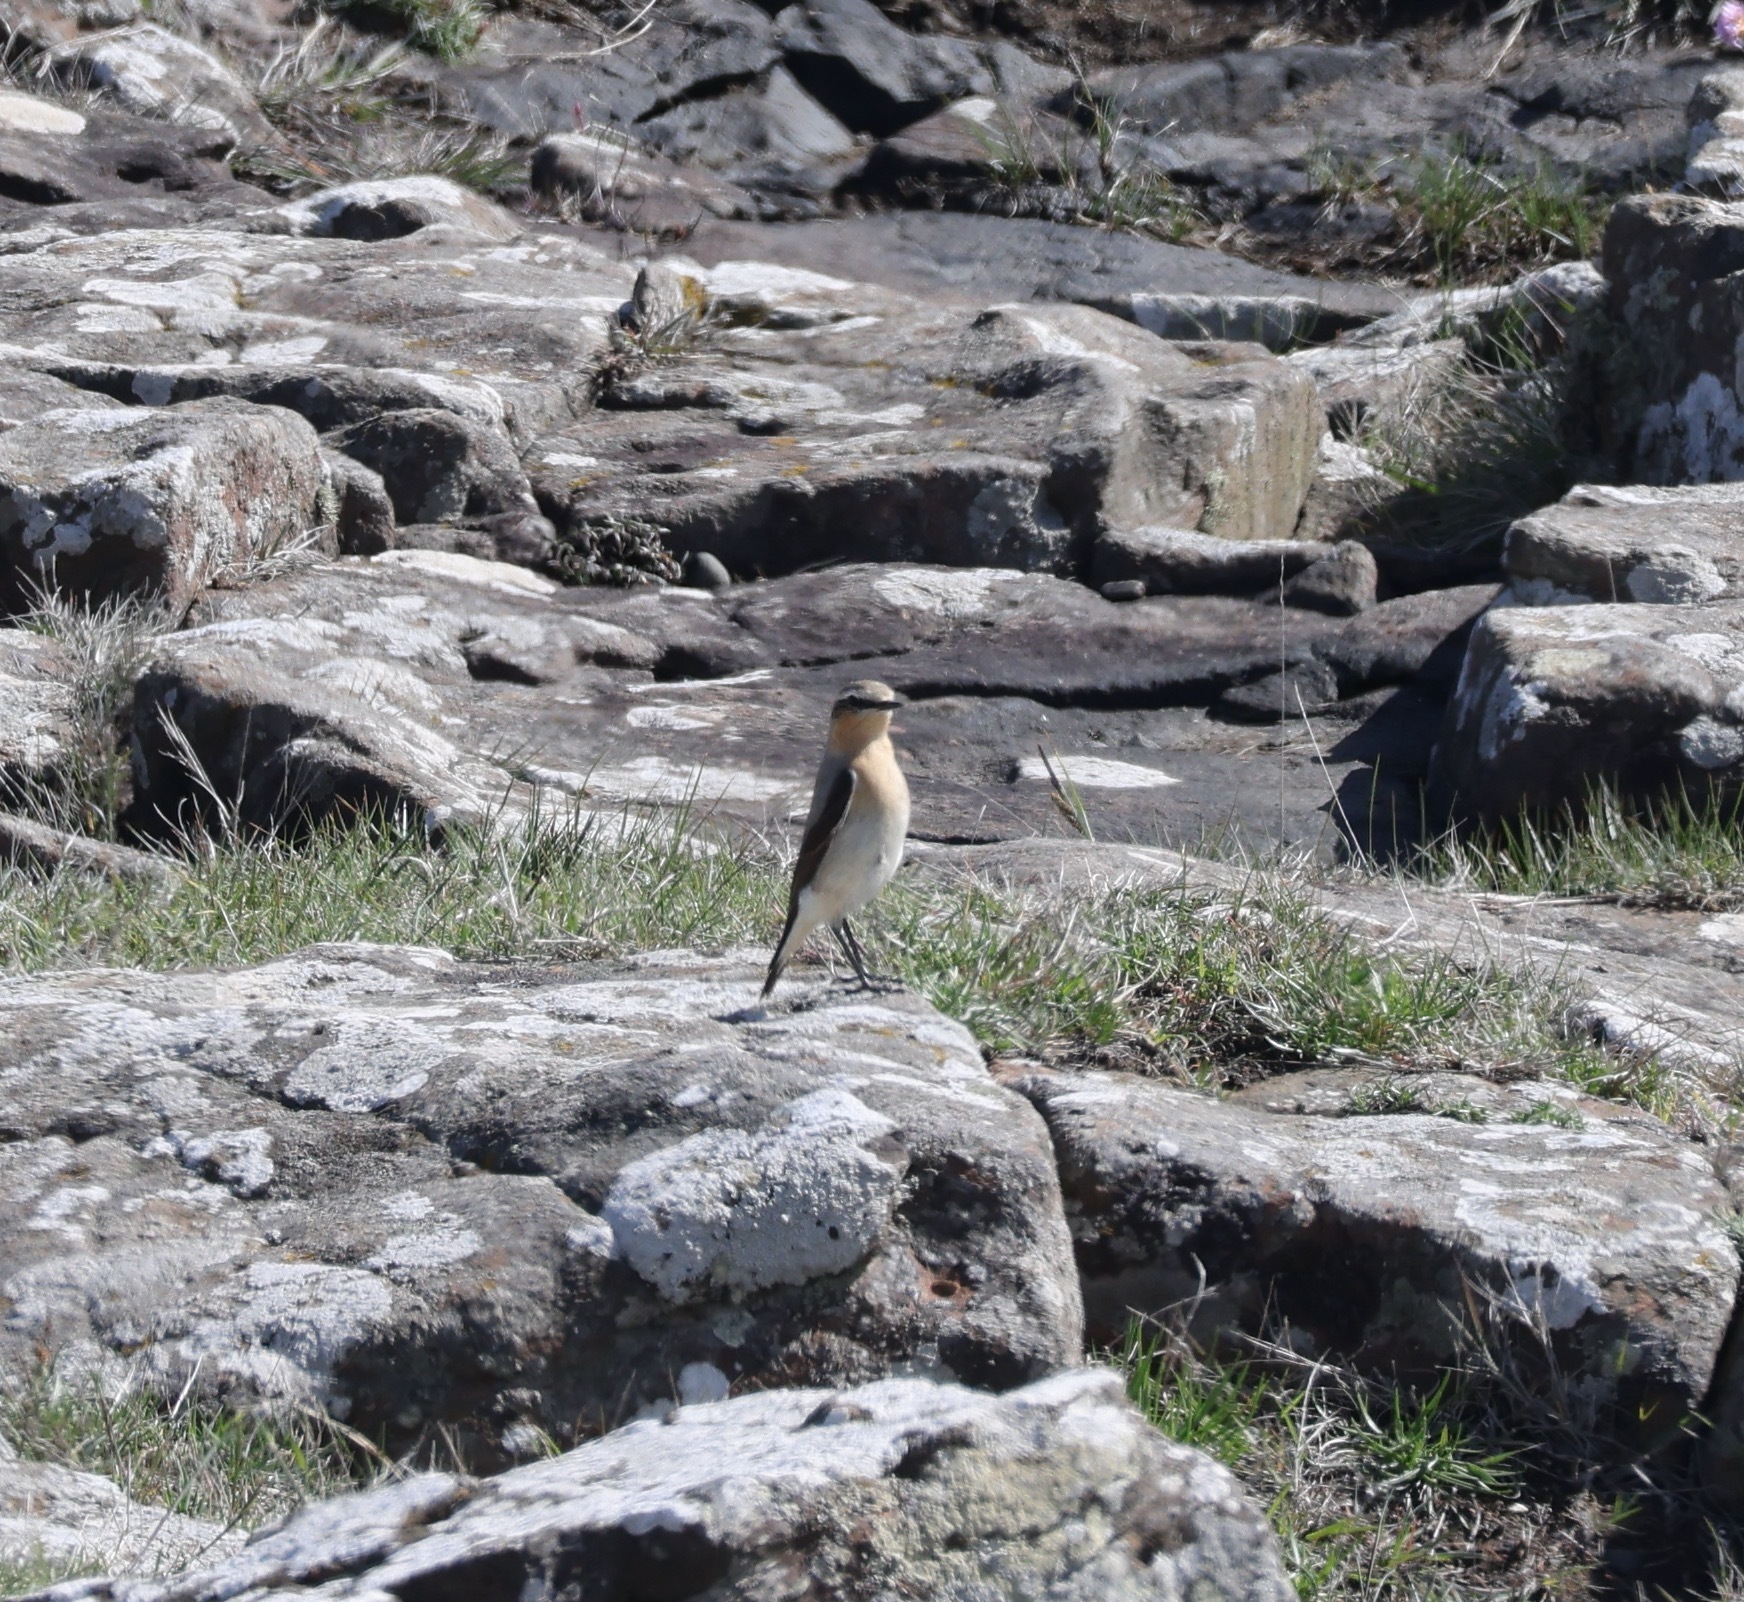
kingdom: Animalia
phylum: Chordata
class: Aves
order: Passeriformes
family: Muscicapidae
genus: Oenanthe
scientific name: Oenanthe oenanthe
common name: Northern wheatear
